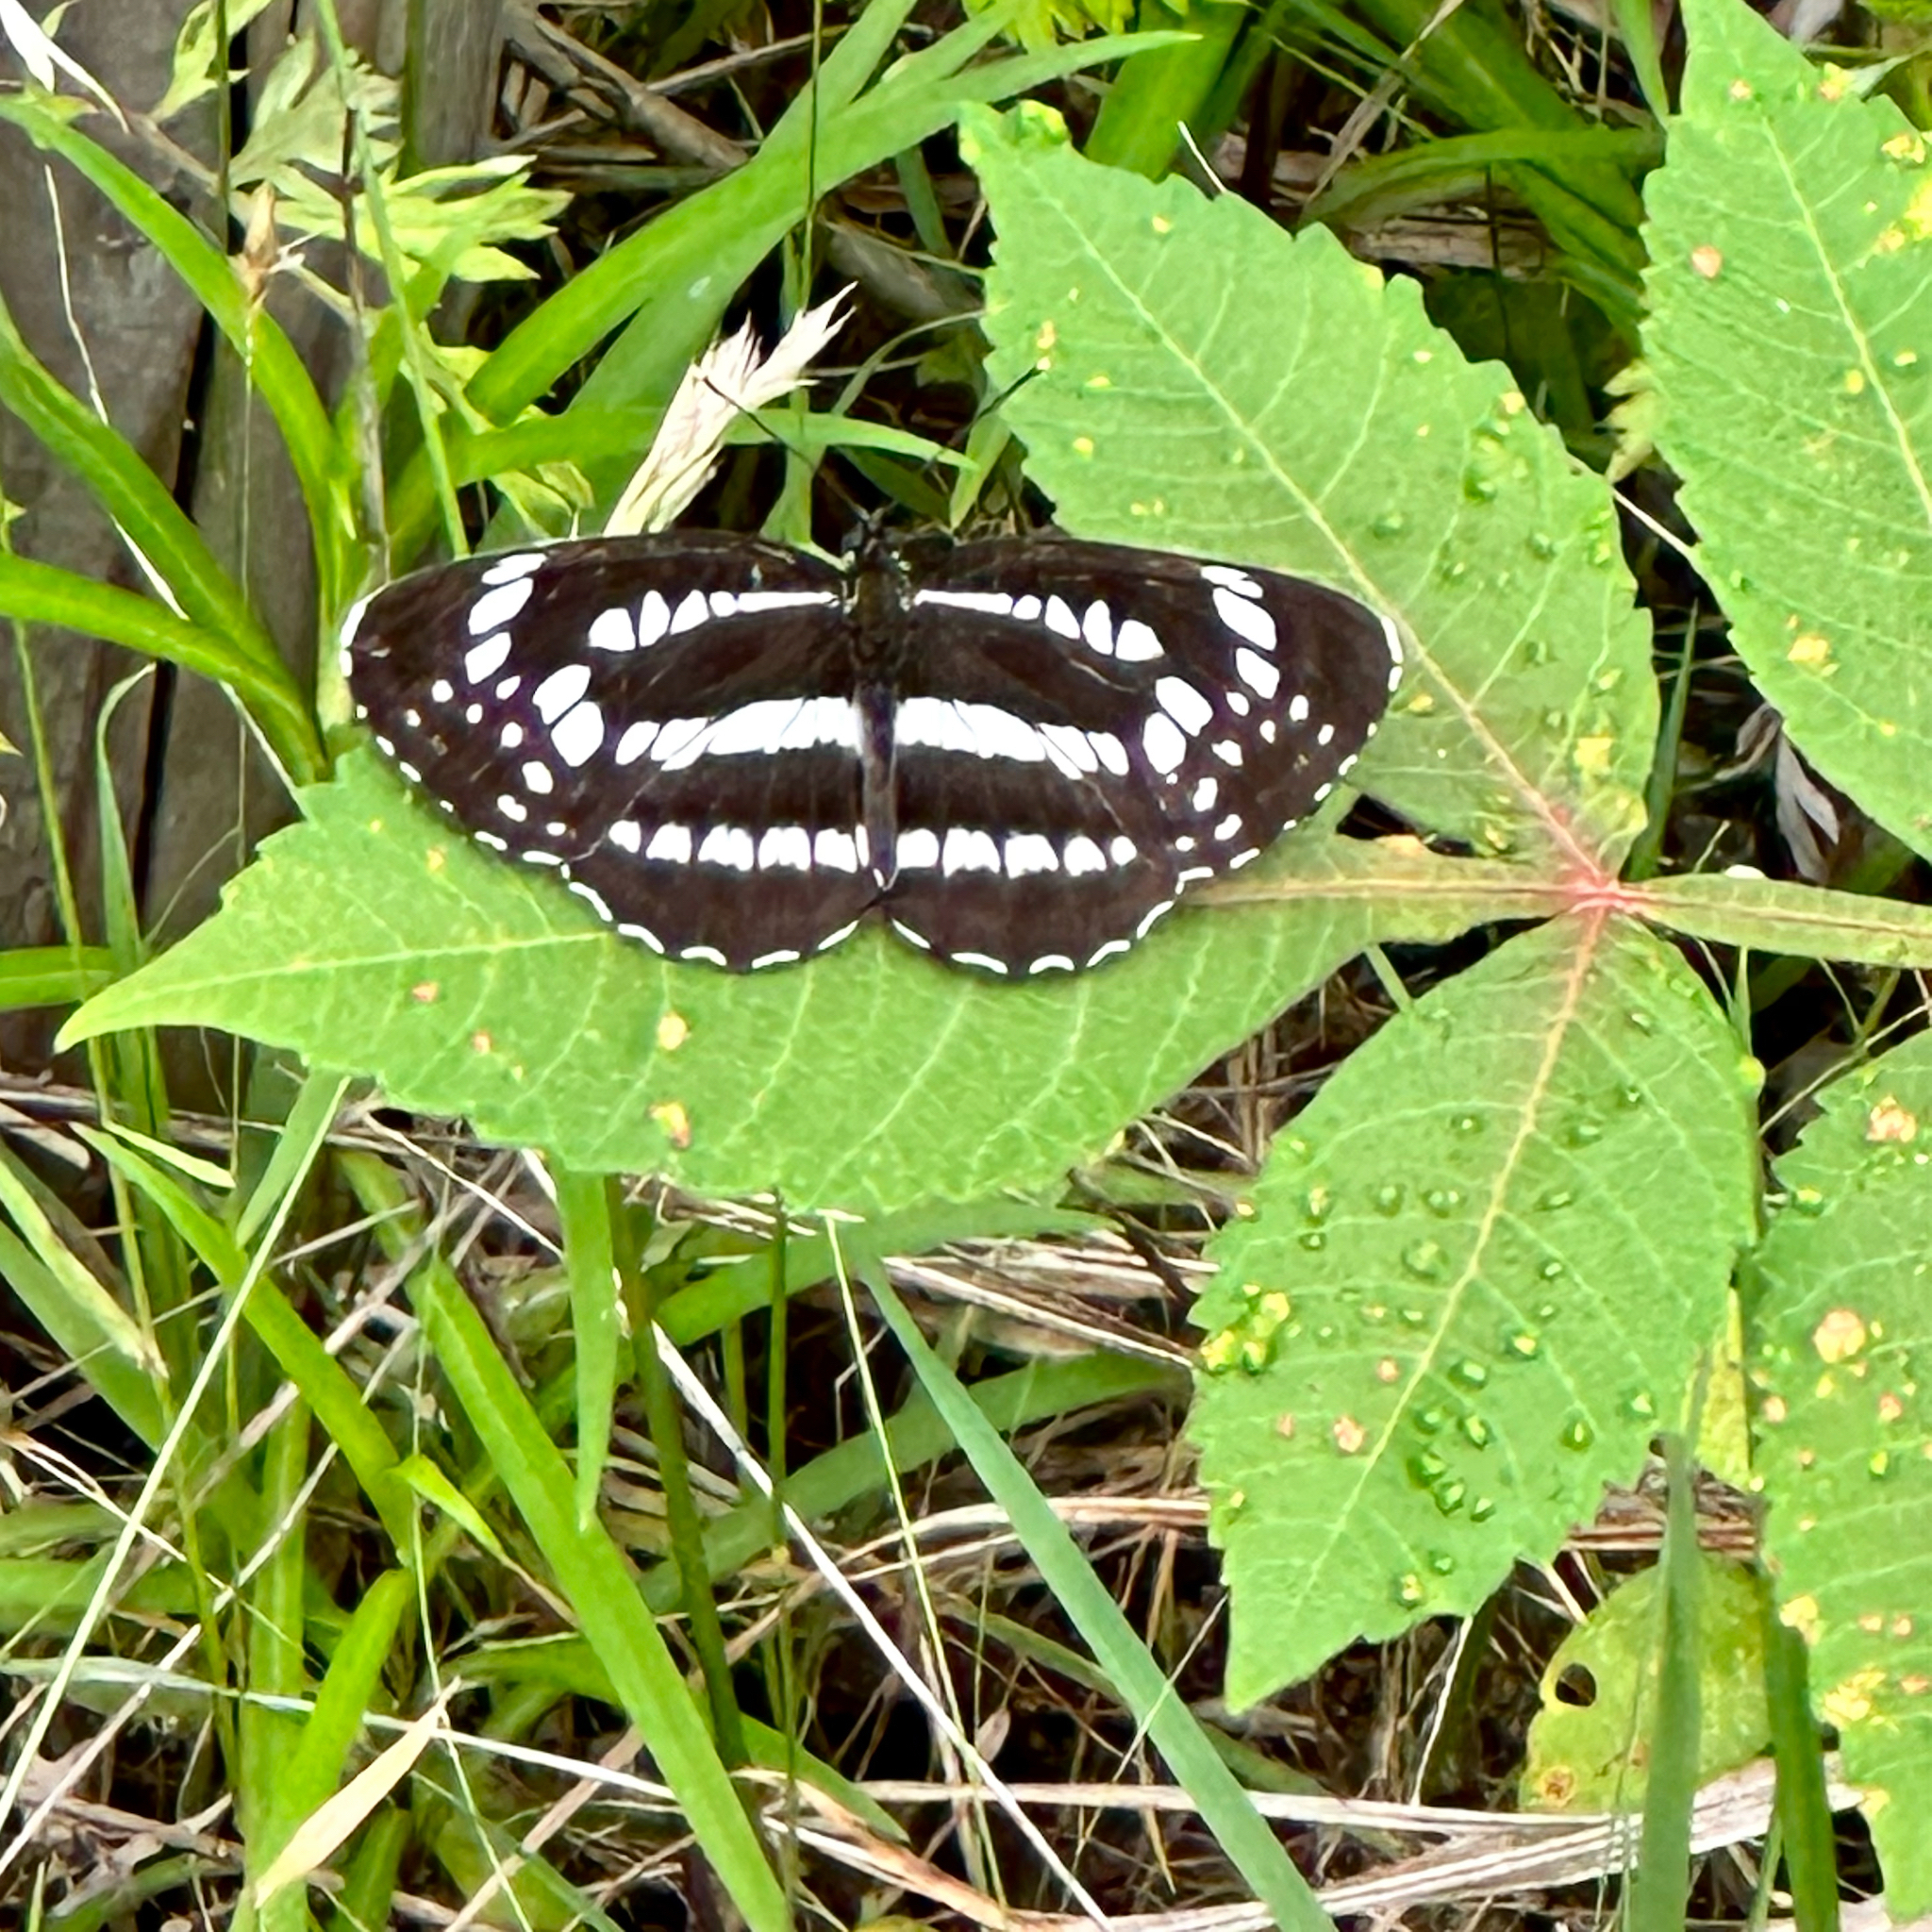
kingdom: Animalia
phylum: Arthropoda
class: Insecta
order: Lepidoptera
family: Nymphalidae
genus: Neptis
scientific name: Neptis pryeri
